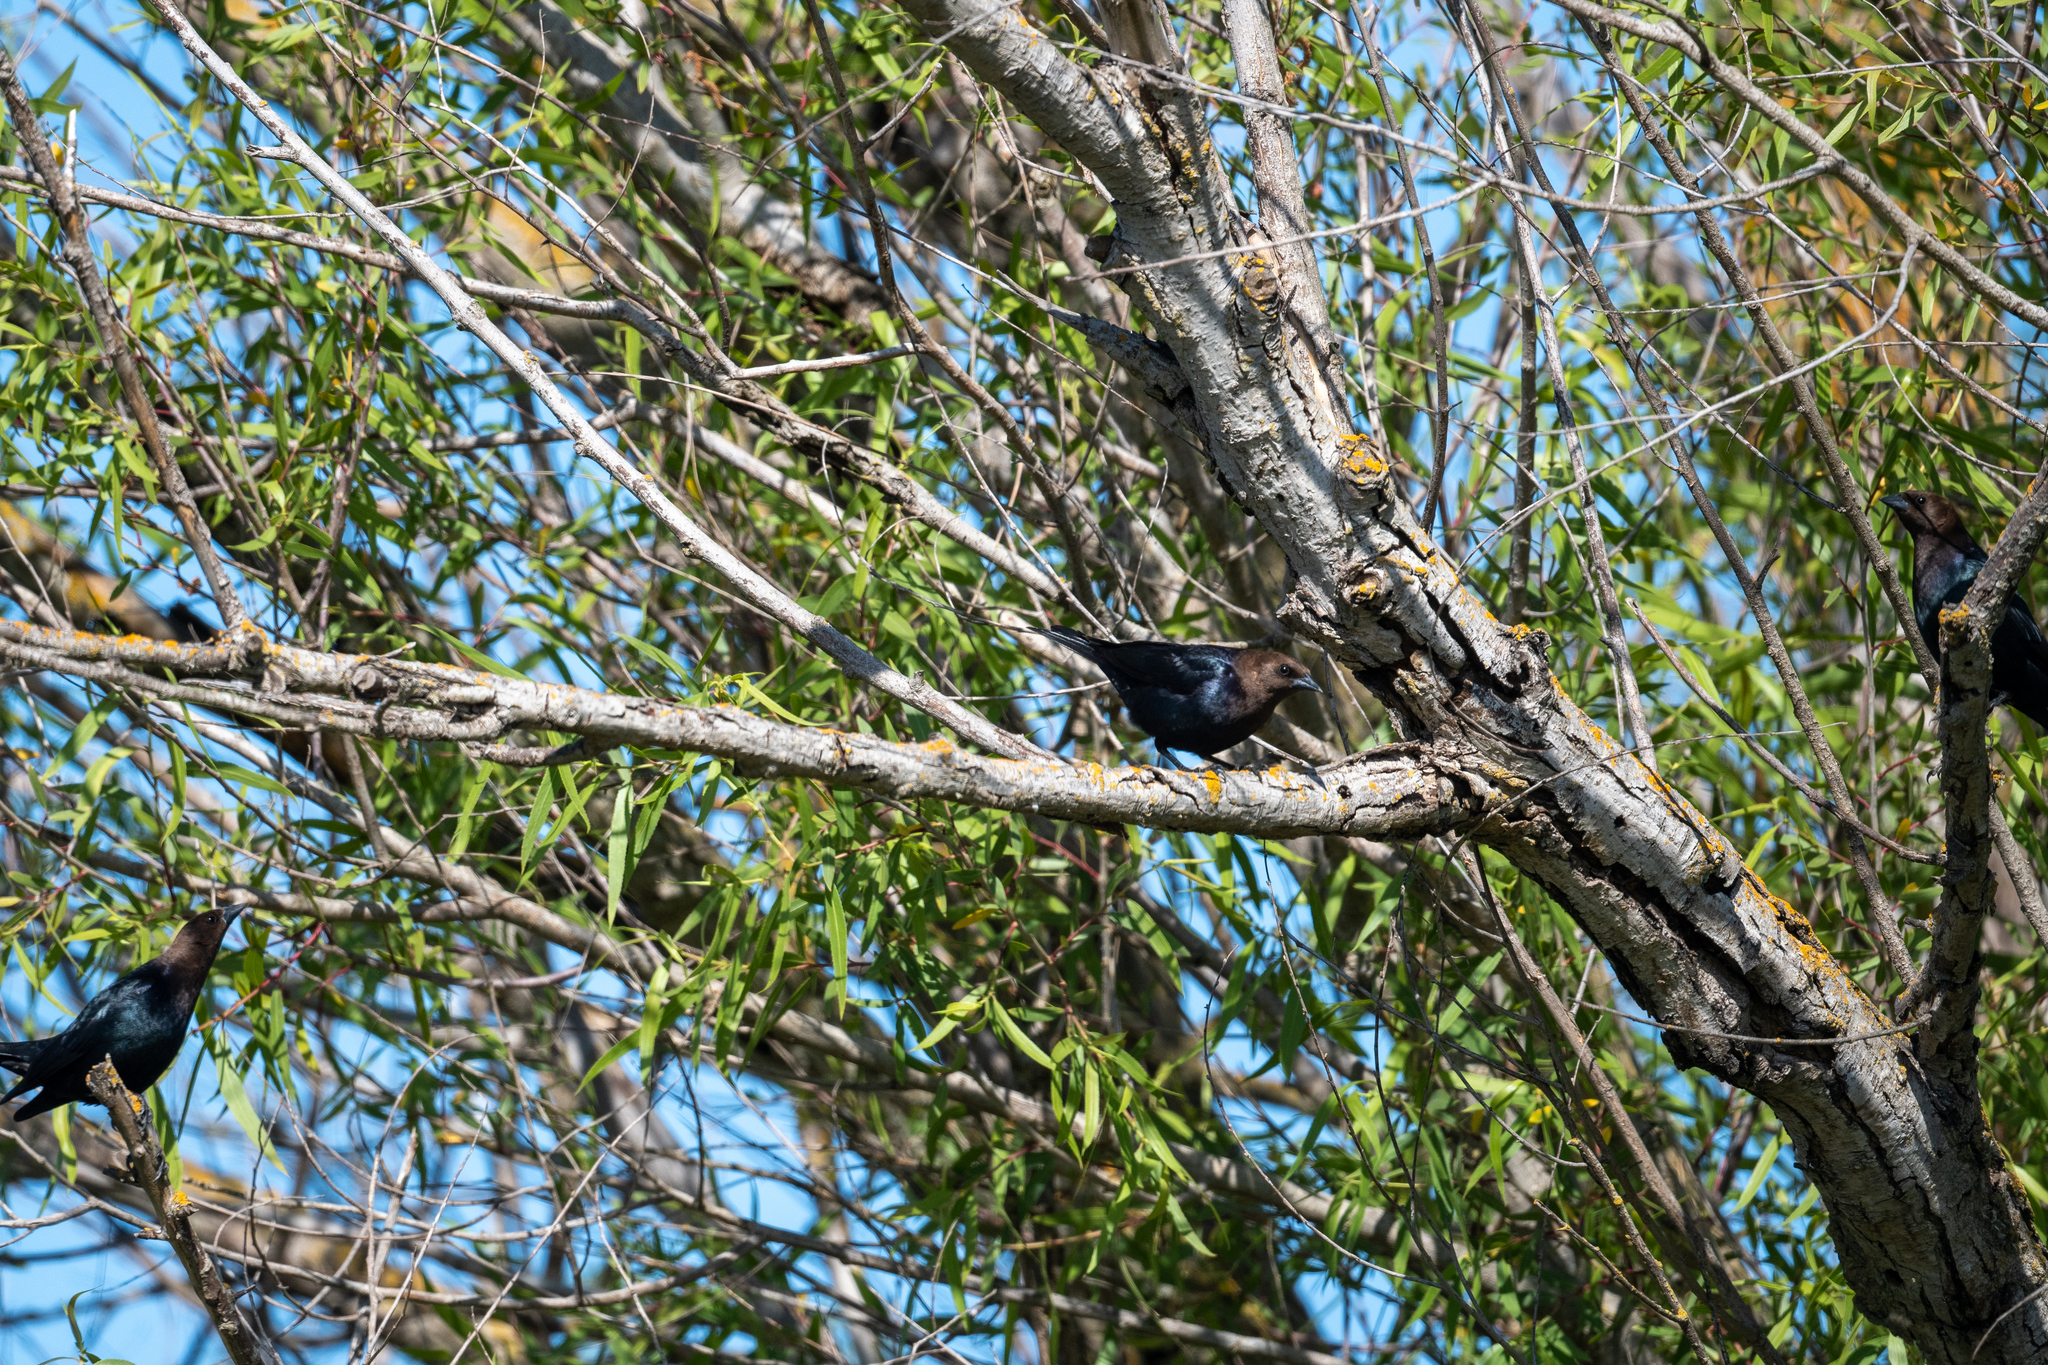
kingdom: Animalia
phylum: Chordata
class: Aves
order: Passeriformes
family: Icteridae
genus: Molothrus
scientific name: Molothrus ater
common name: Brown-headed cowbird
